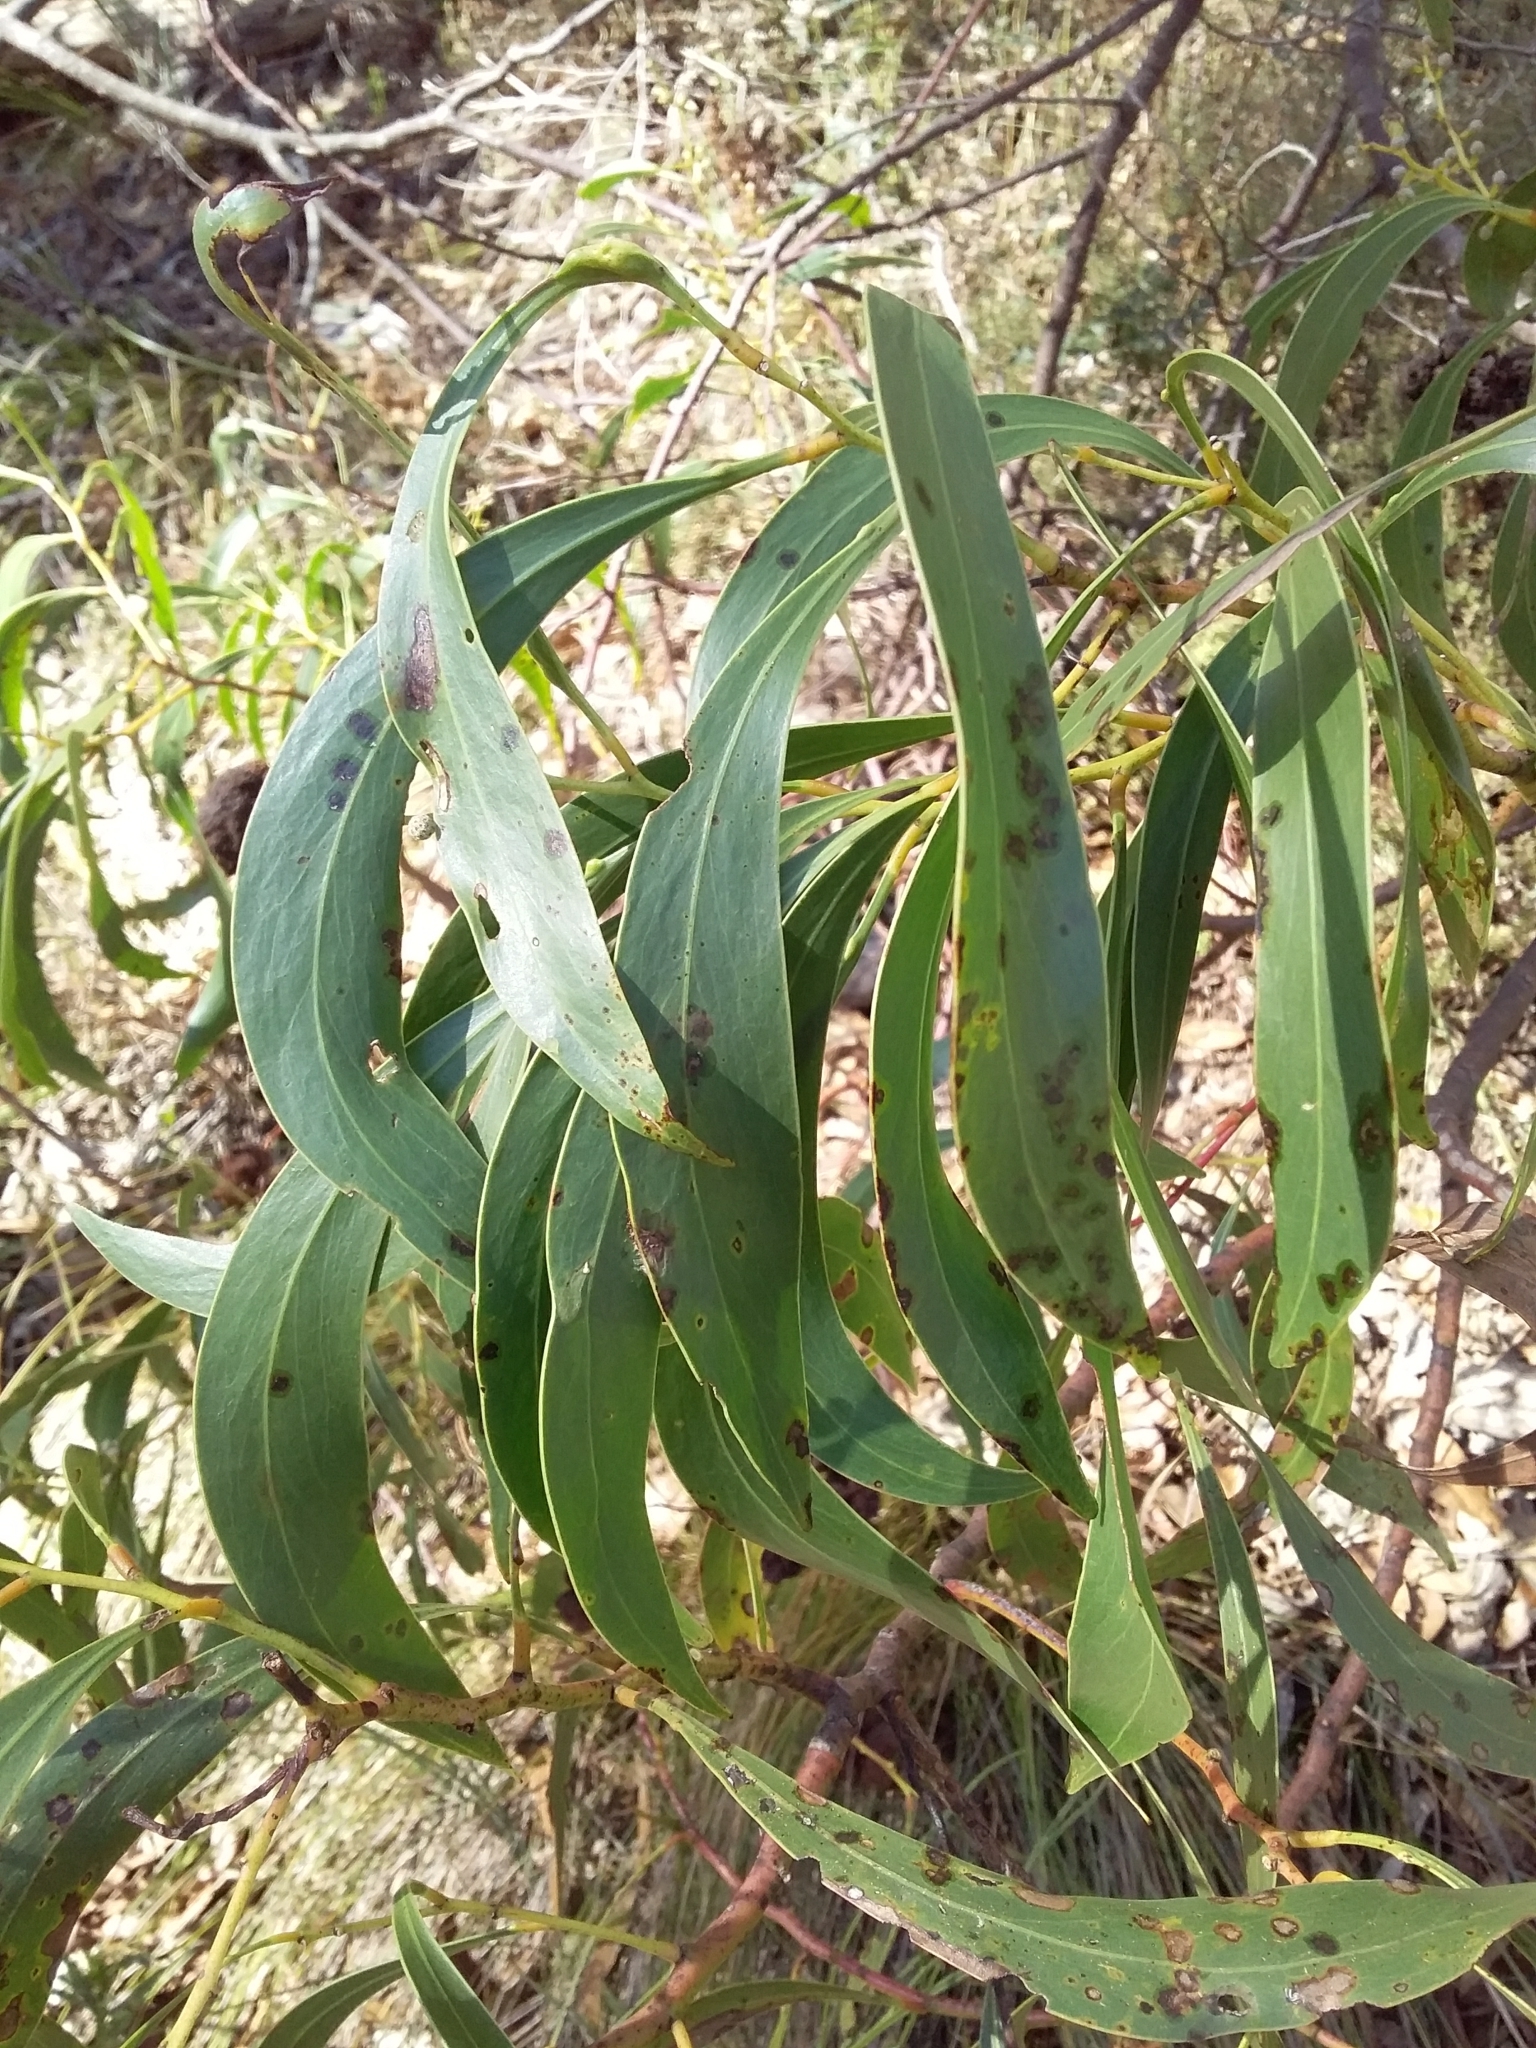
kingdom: Plantae
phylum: Tracheophyta
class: Magnoliopsida
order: Fabales
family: Fabaceae
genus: Acacia
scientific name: Acacia pycnantha
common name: Golden wattle
